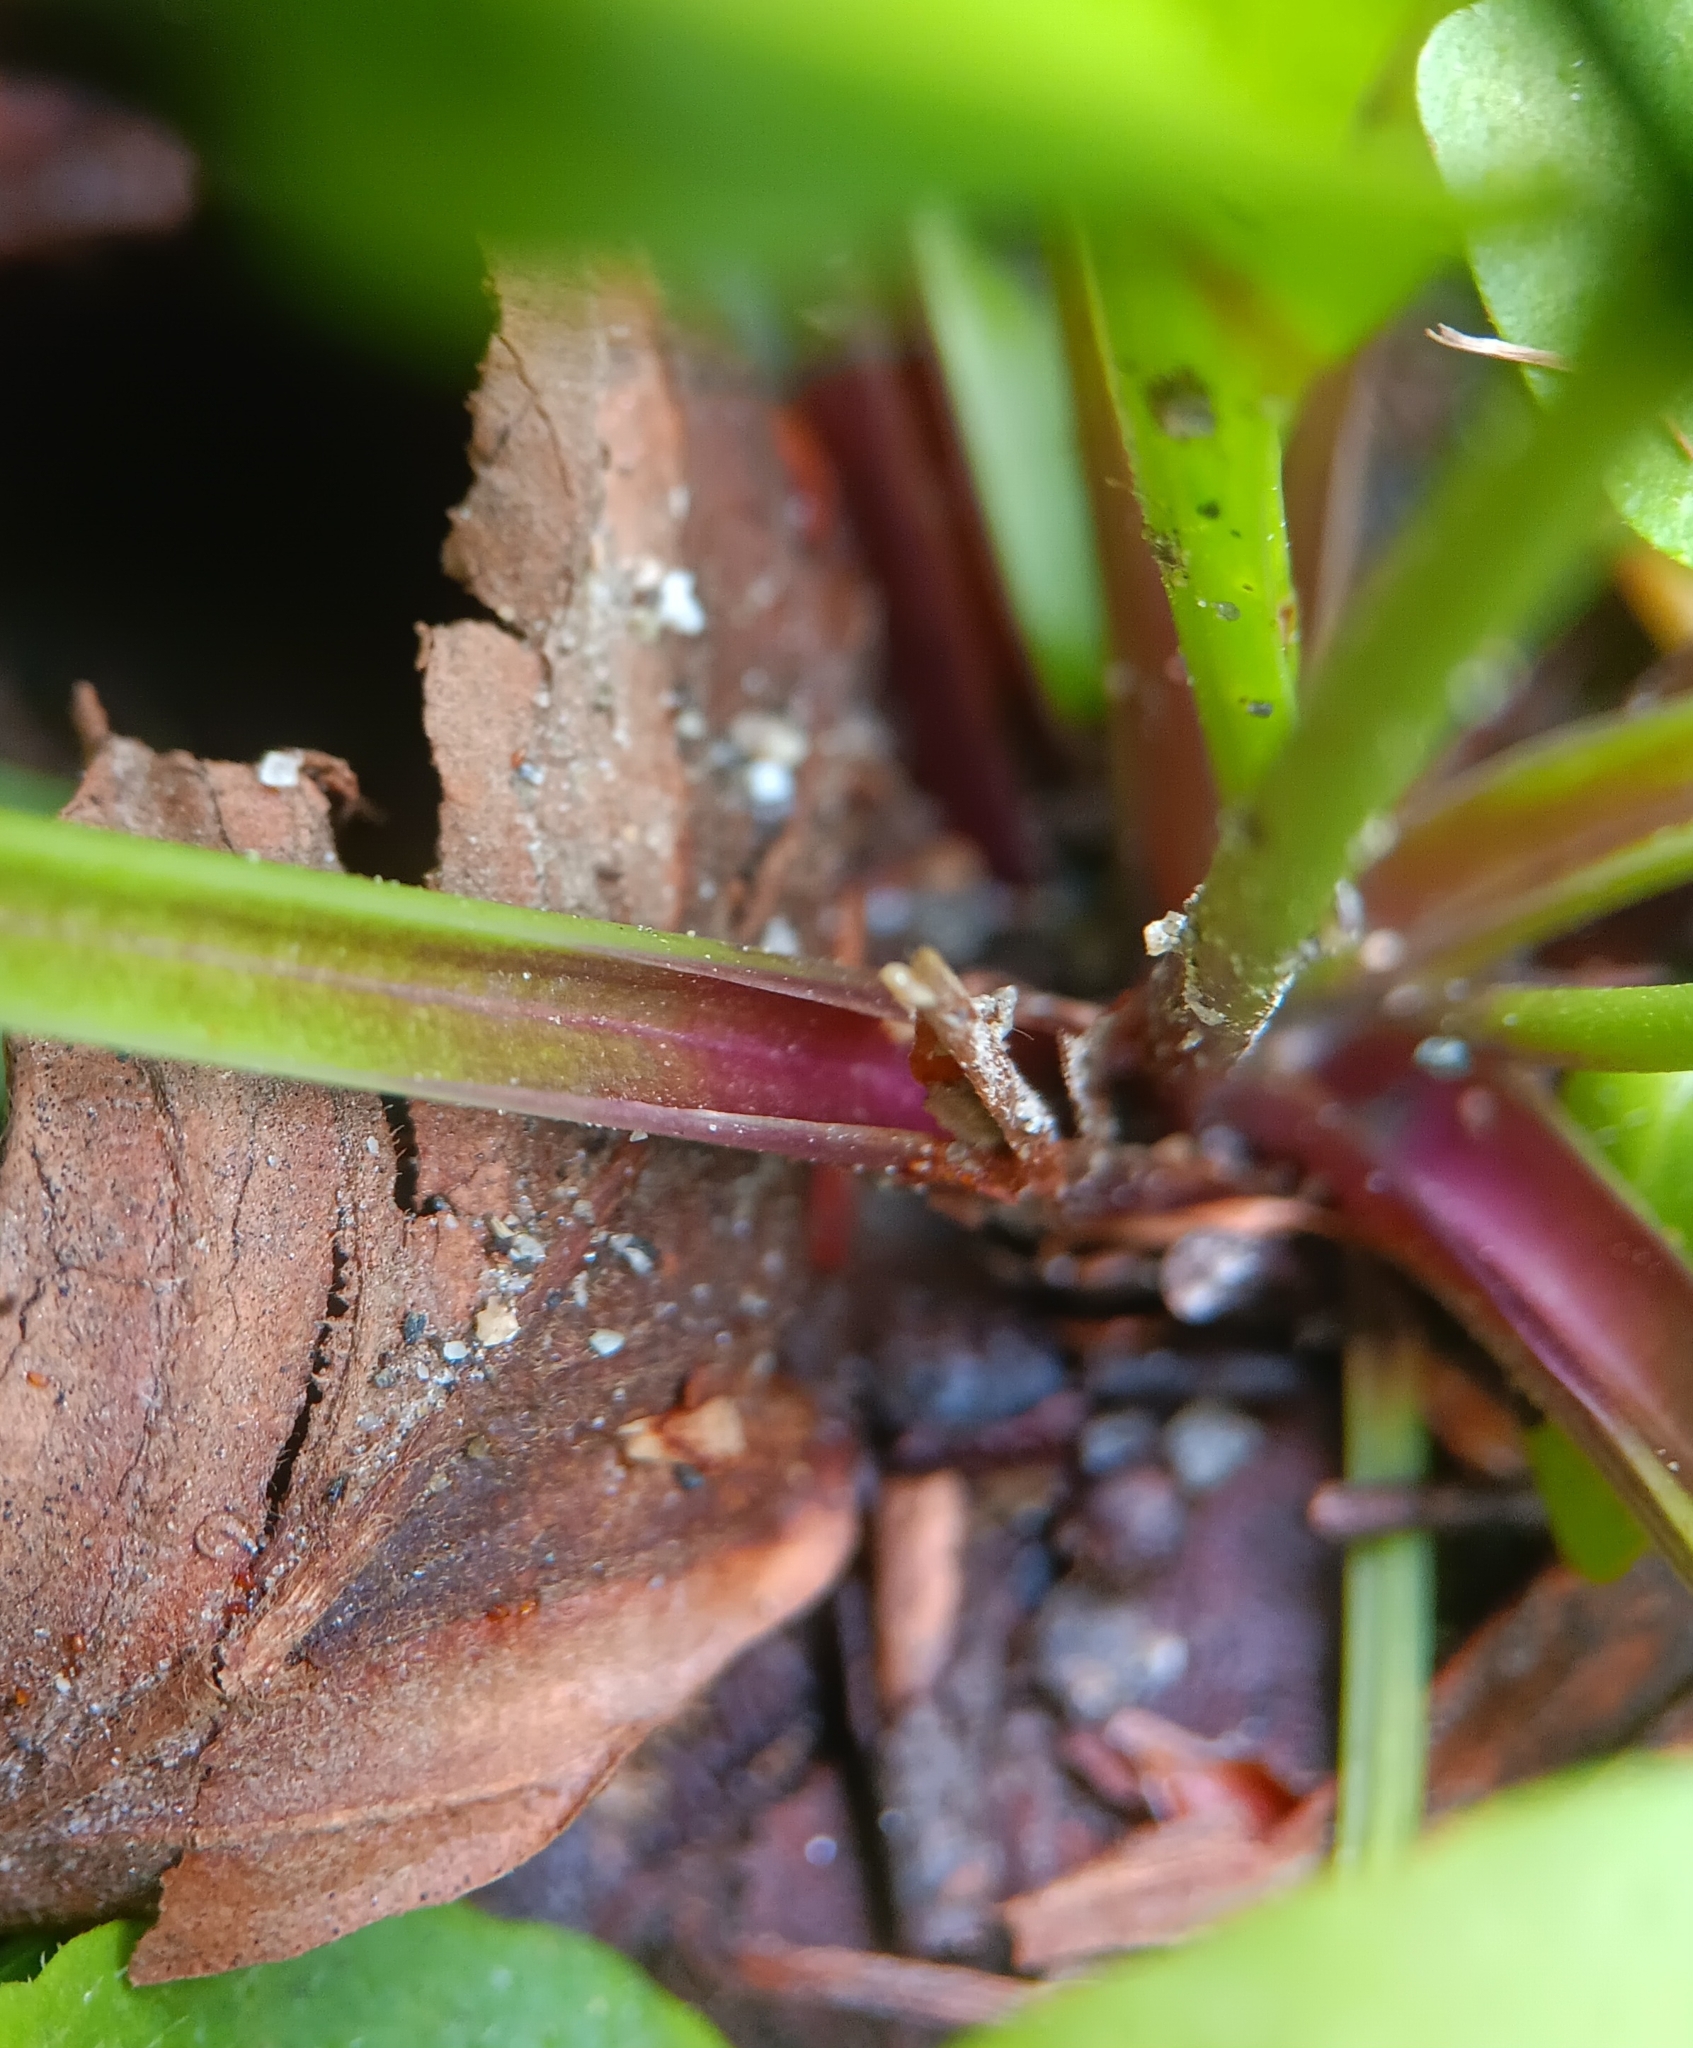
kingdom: Plantae
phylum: Tracheophyta
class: Magnoliopsida
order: Lamiales
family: Plantaginaceae
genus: Plantago
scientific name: Plantago rugelii
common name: American plantain
